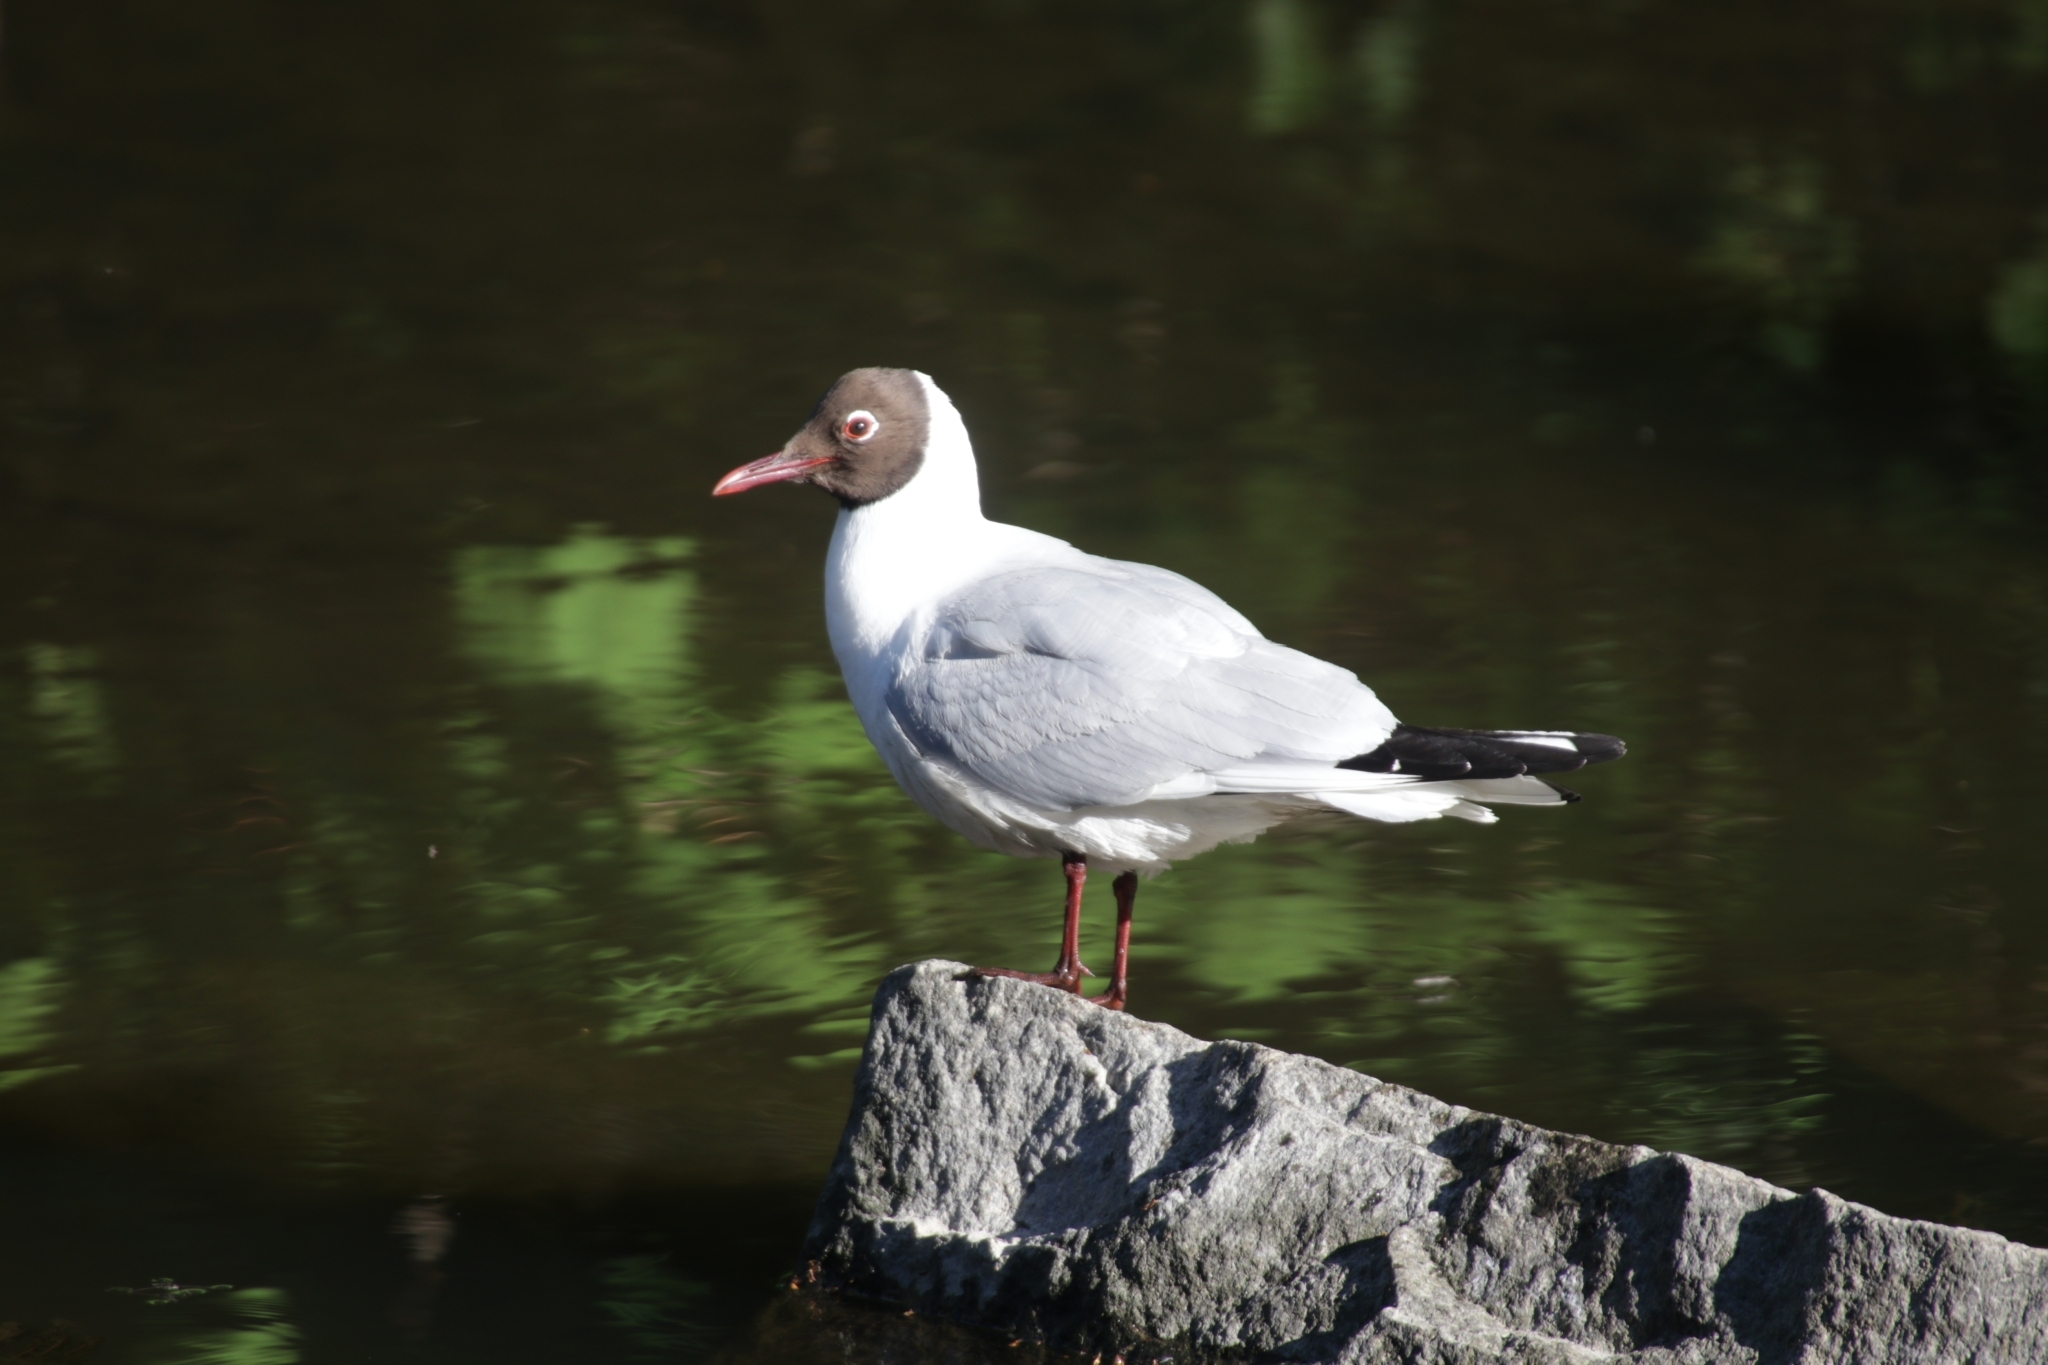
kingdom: Animalia
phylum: Chordata
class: Aves
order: Charadriiformes
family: Laridae
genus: Chroicocephalus
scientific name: Chroicocephalus ridibundus
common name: Black-headed gull
